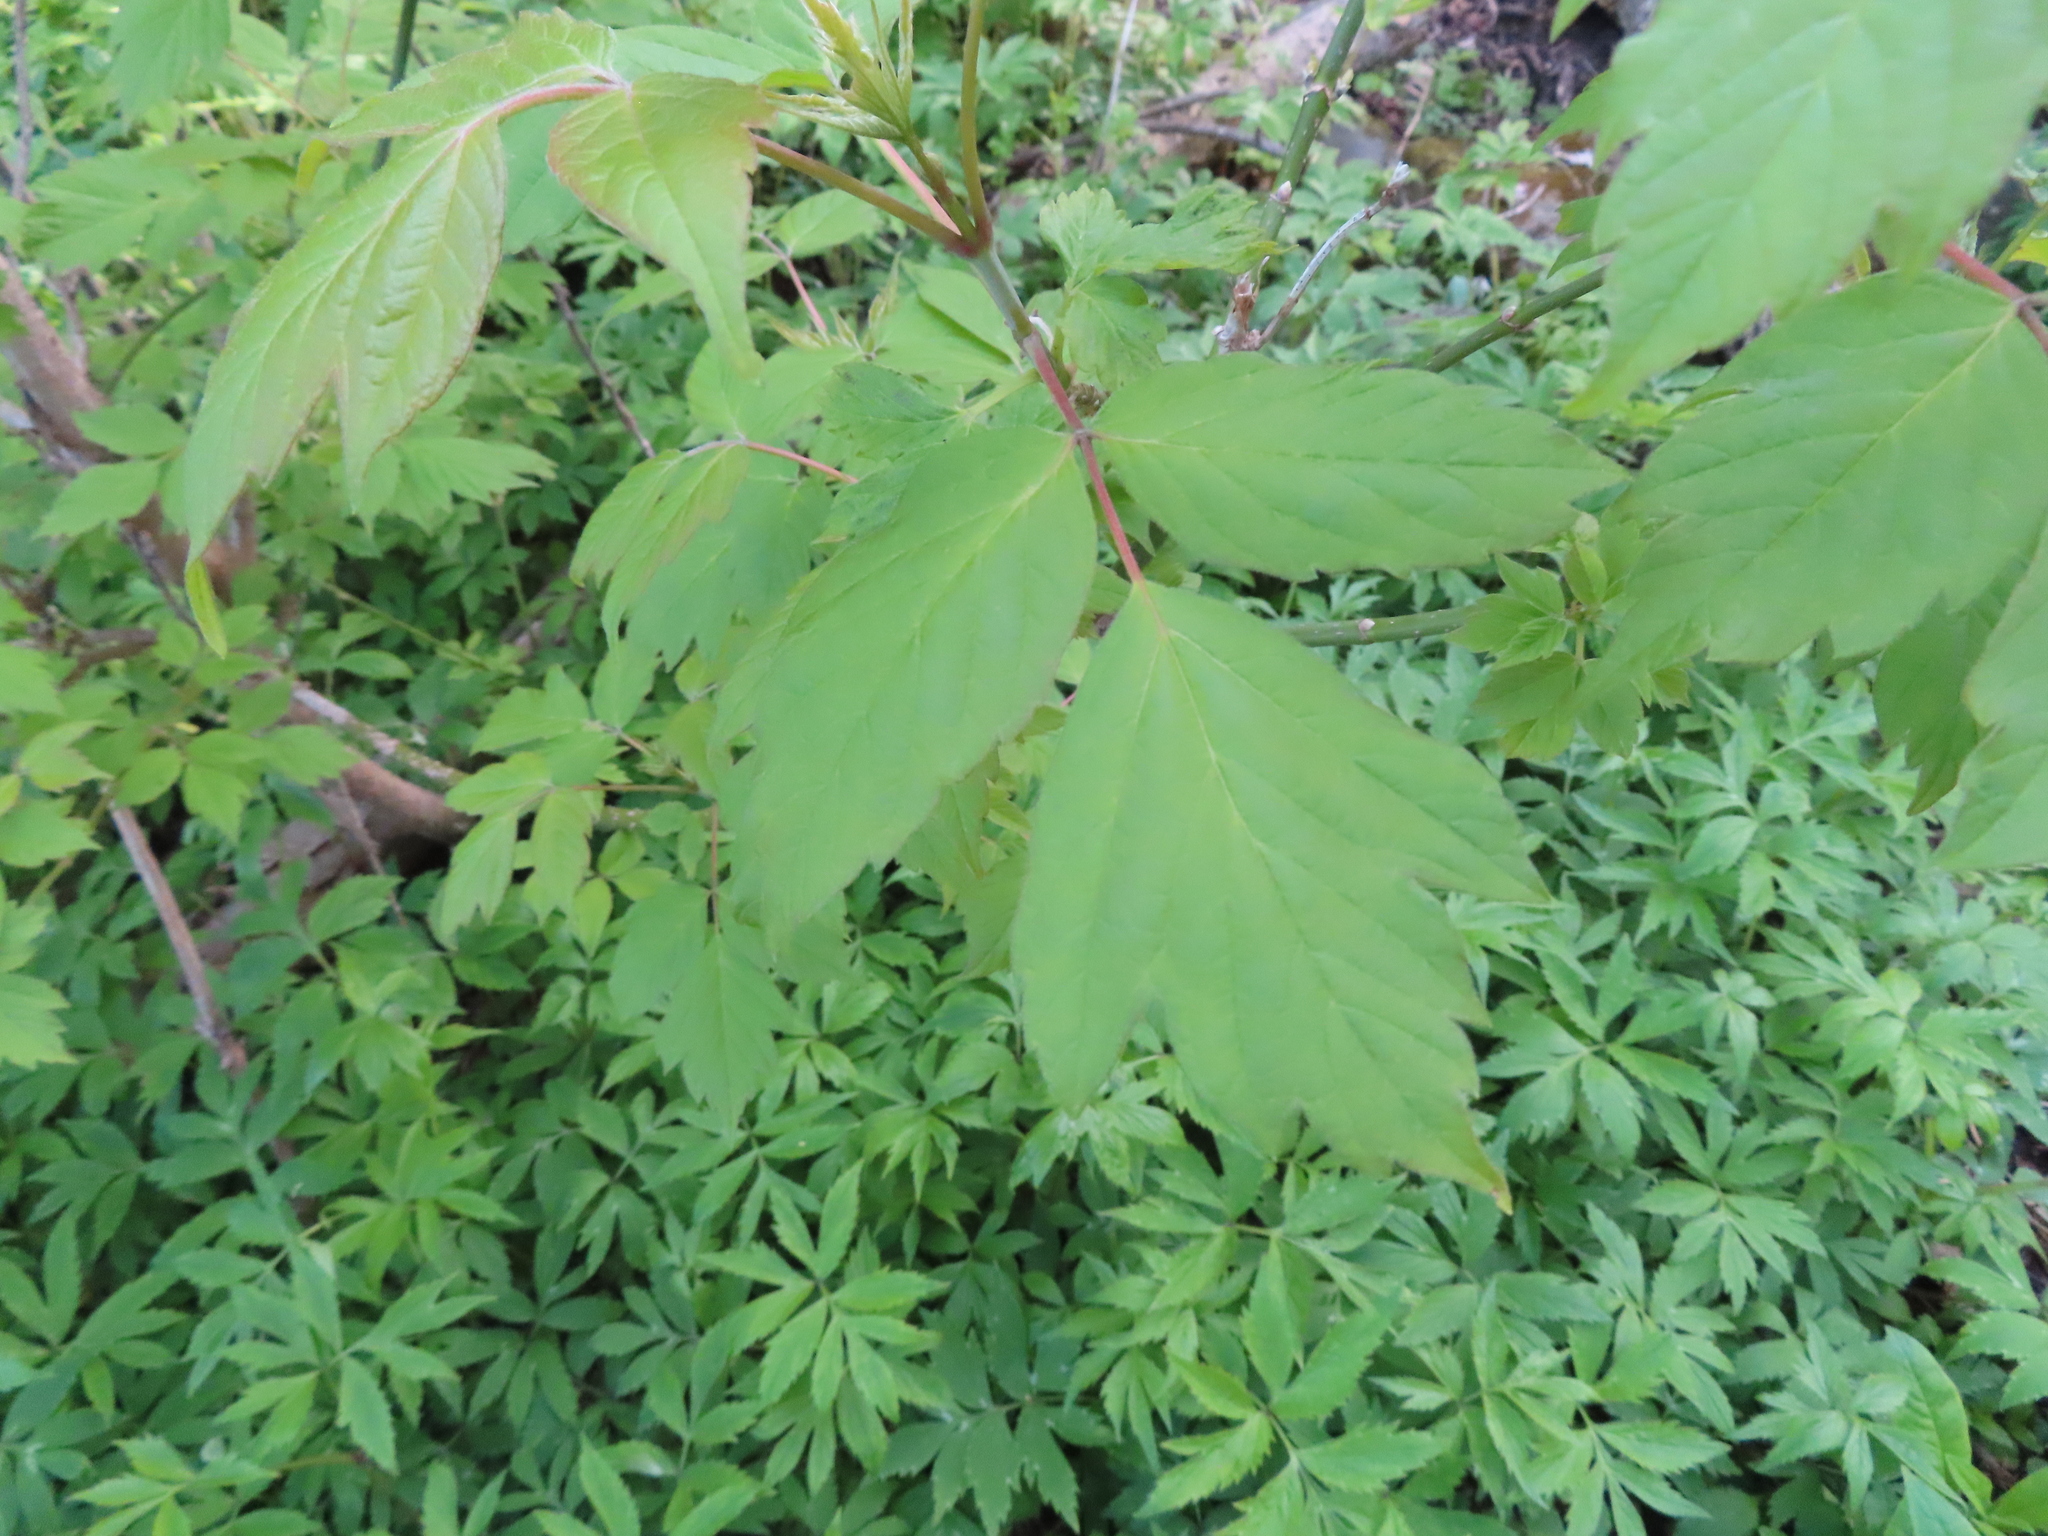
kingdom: Plantae
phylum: Tracheophyta
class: Magnoliopsida
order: Sapindales
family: Sapindaceae
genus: Acer
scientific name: Acer negundo
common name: Ashleaf maple
